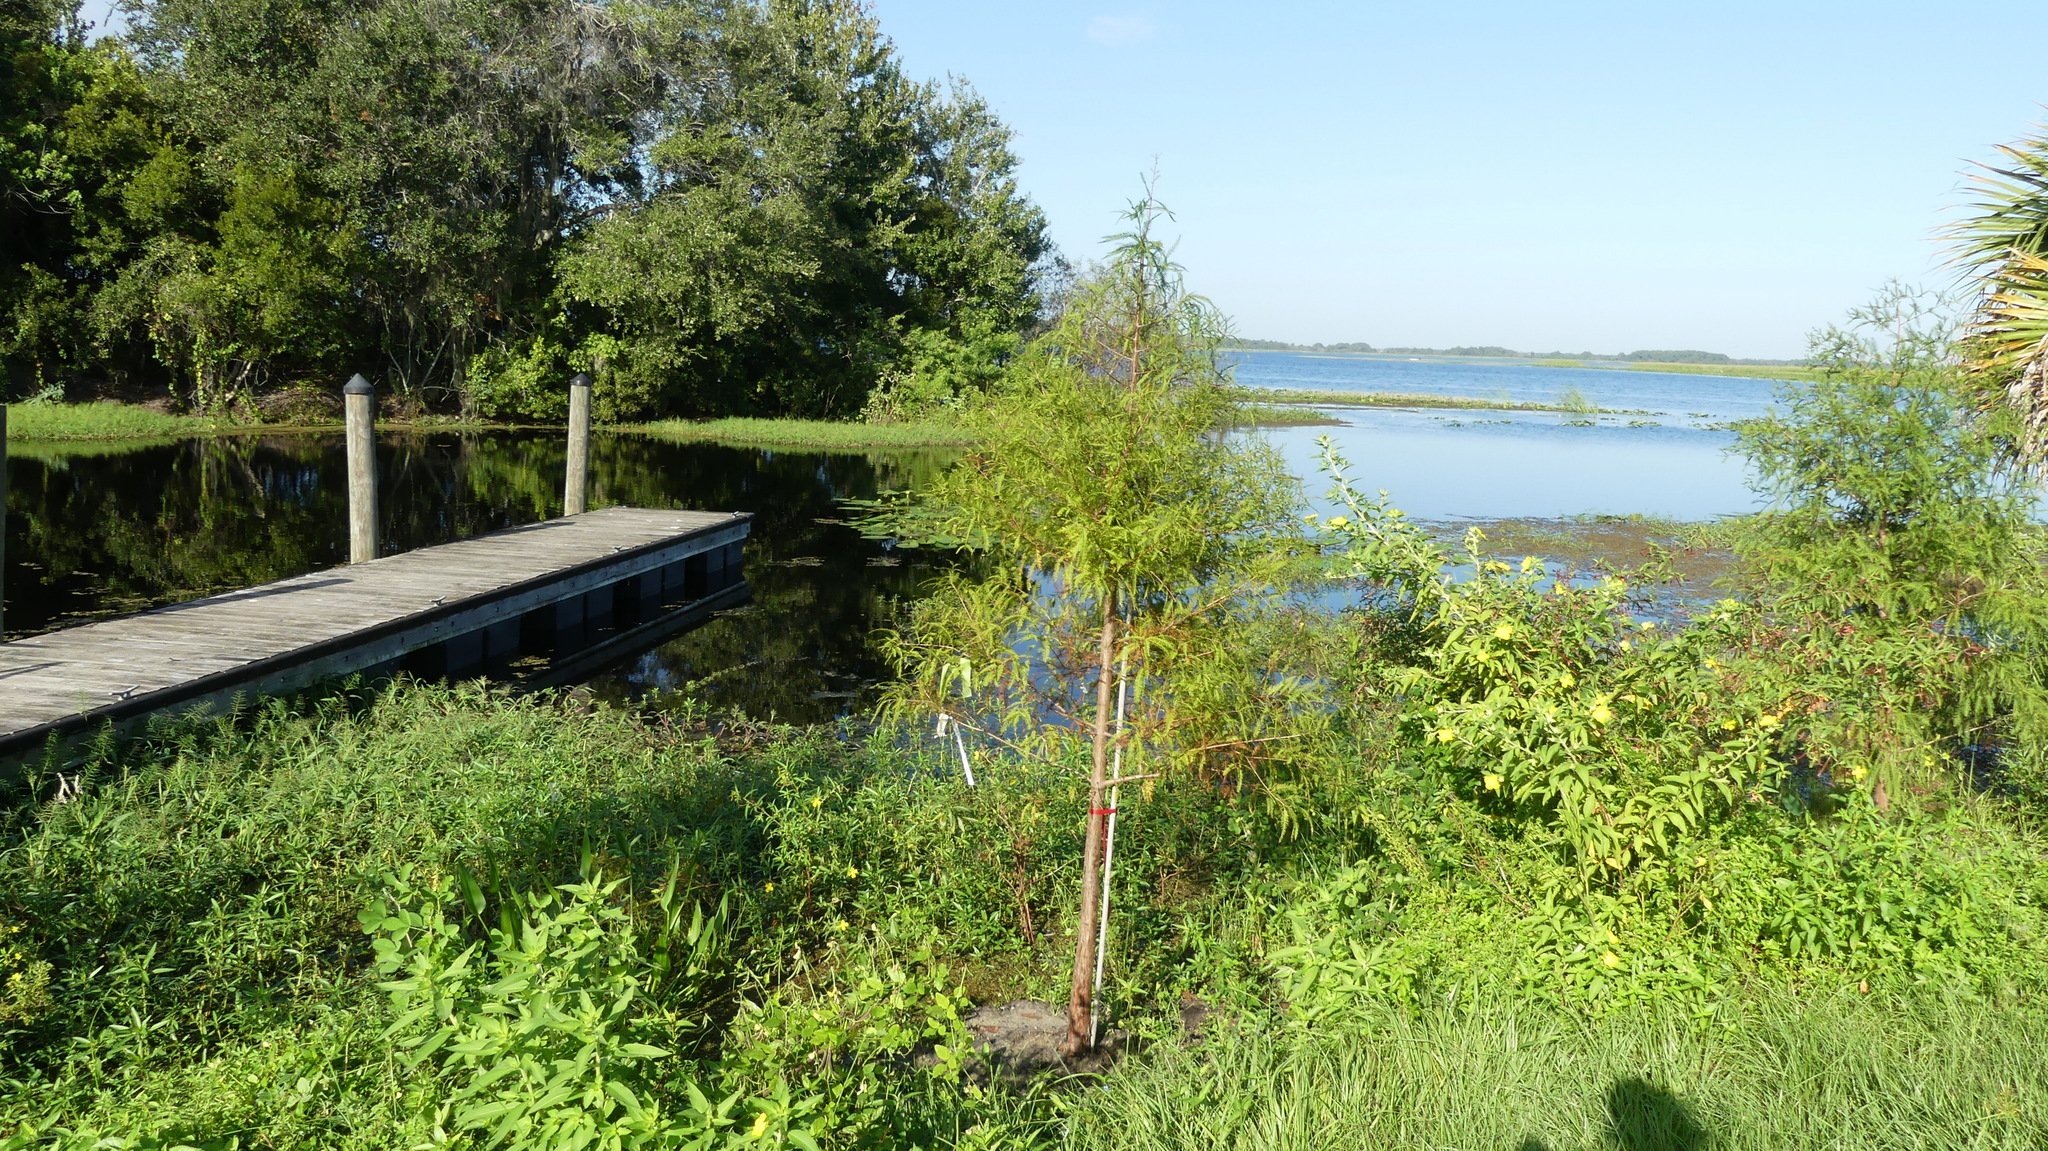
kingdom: Plantae
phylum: Tracheophyta
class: Pinopsida
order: Pinales
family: Cupressaceae
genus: Taxodium
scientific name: Taxodium distichum
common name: Bald cypress
